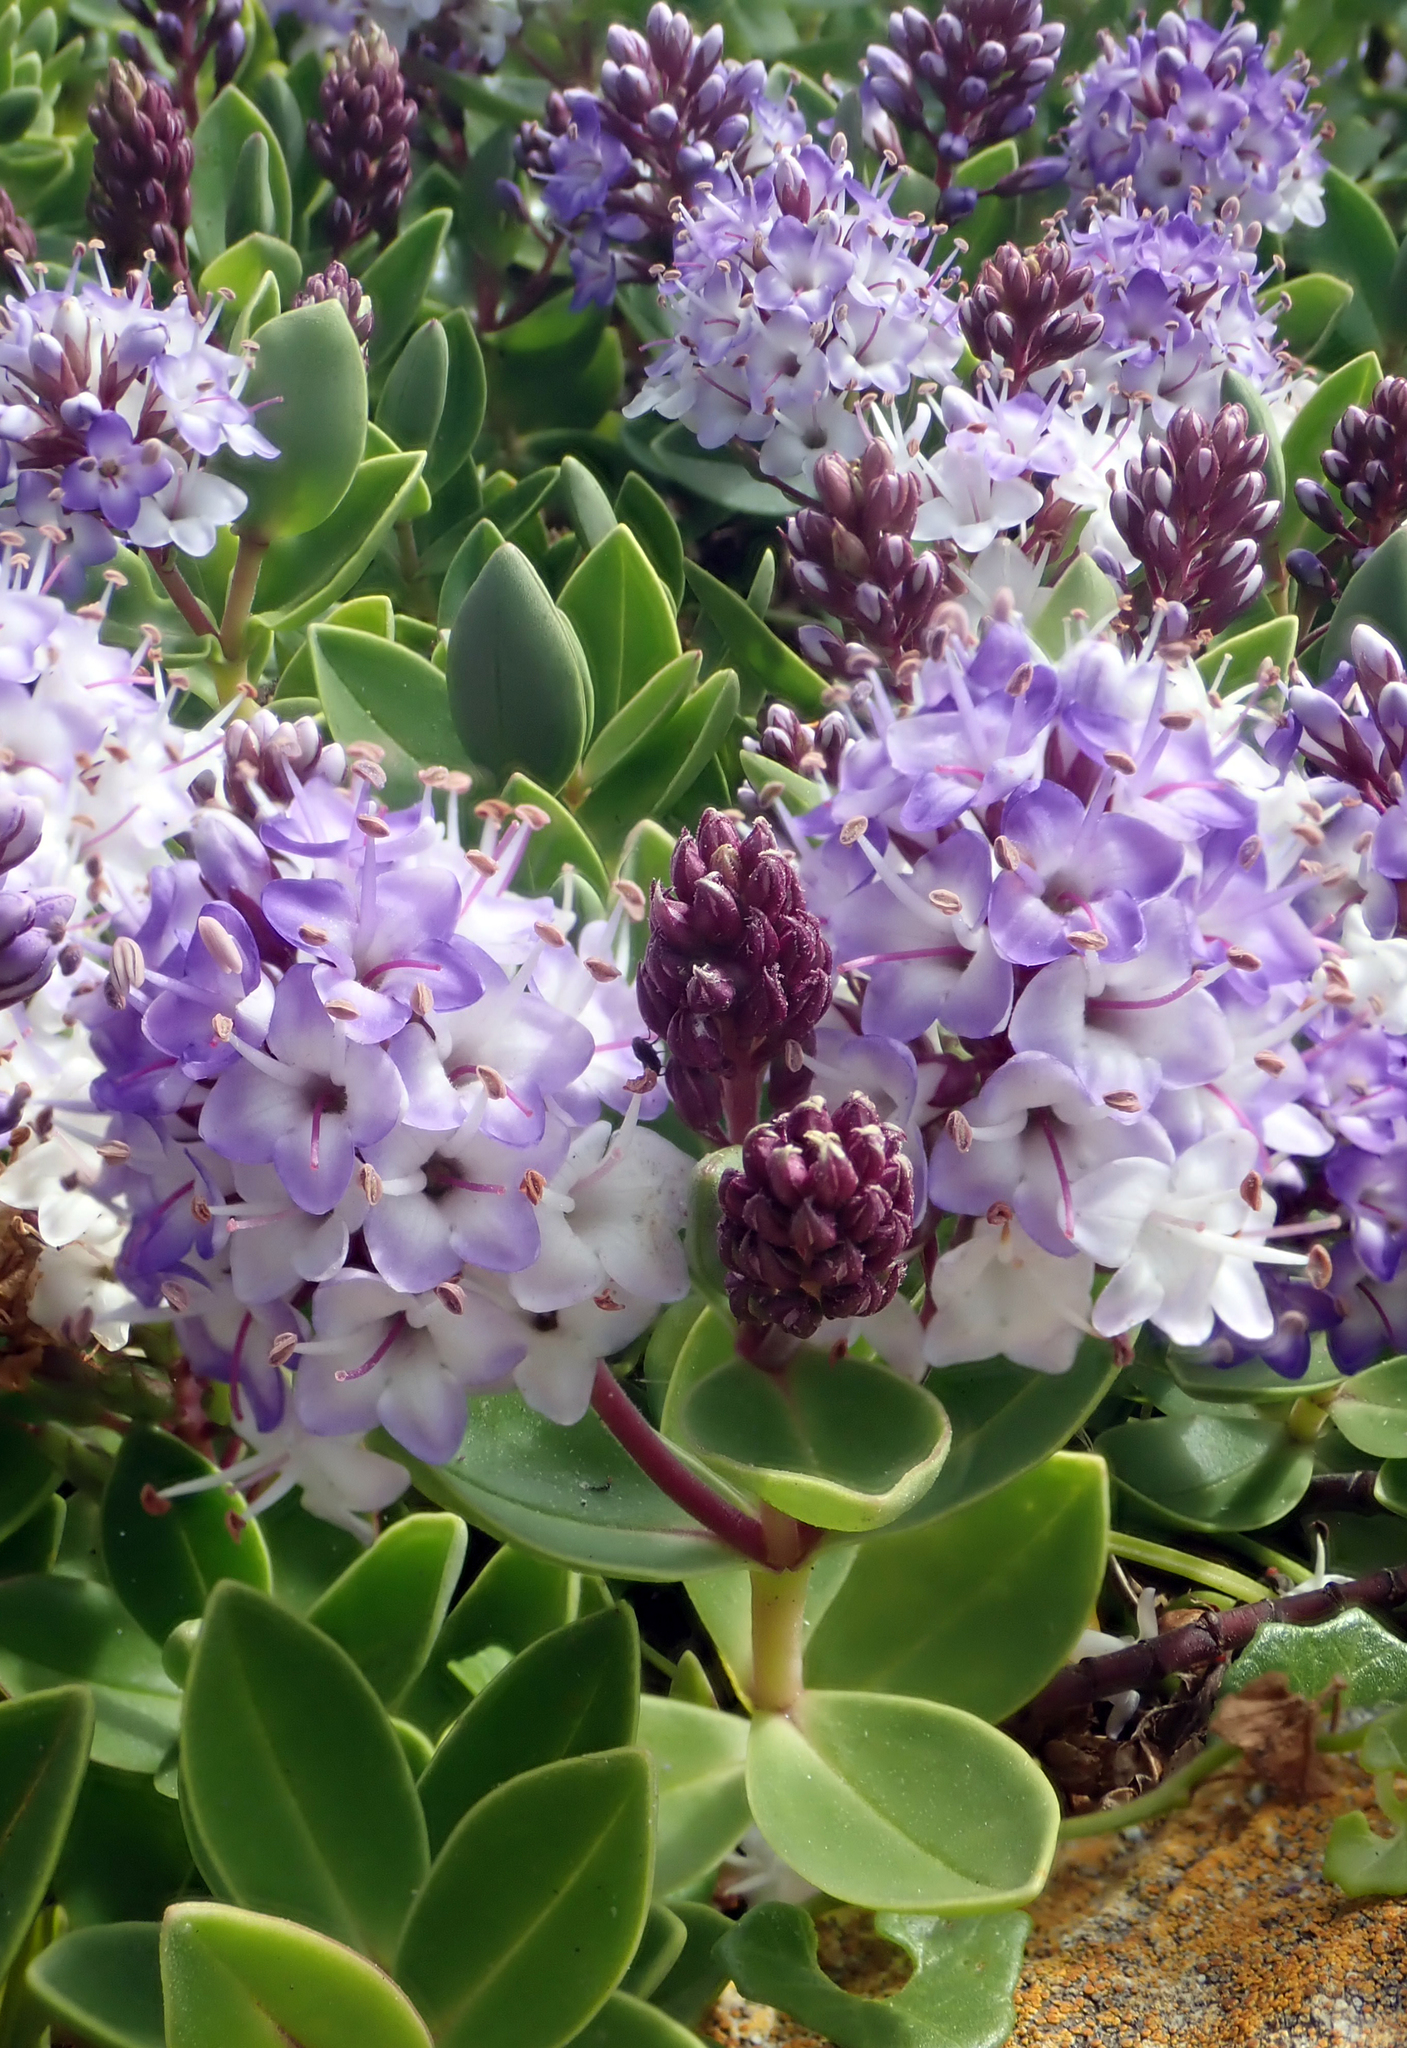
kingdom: Plantae
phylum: Tracheophyta
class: Magnoliopsida
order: Lamiales
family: Plantaginaceae
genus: Veronica
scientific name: Veronica chathamica
